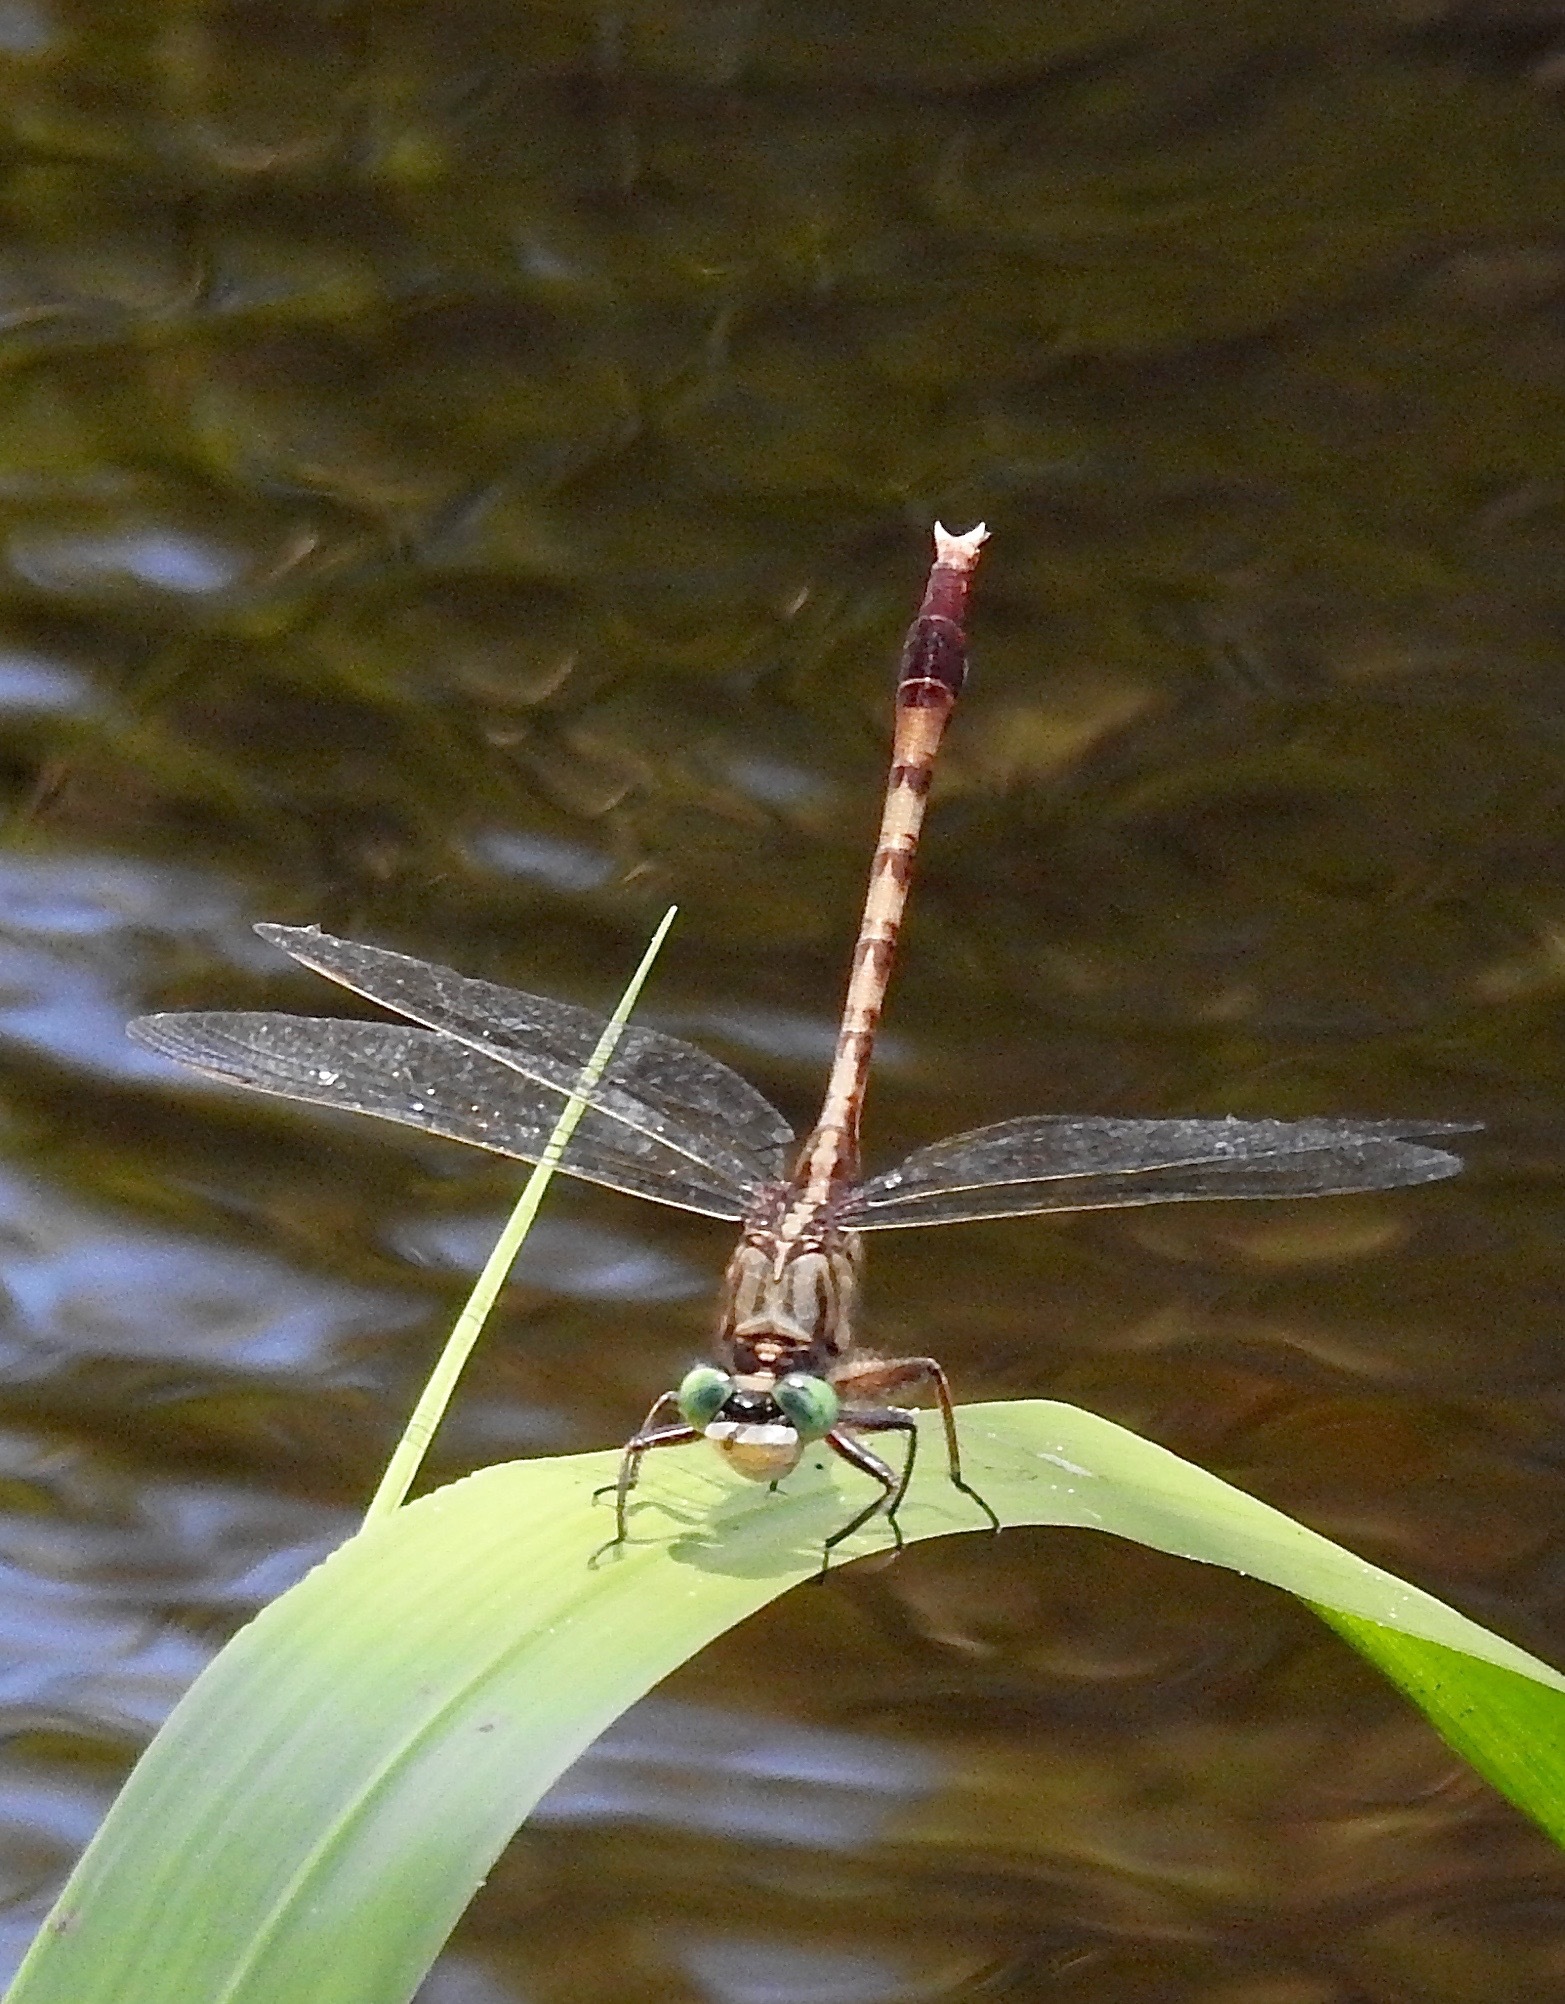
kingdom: Animalia
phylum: Arthropoda
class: Insecta
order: Odonata
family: Gomphidae
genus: Arigomphus
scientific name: Arigomphus pallidus
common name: Gray-green clubtail
